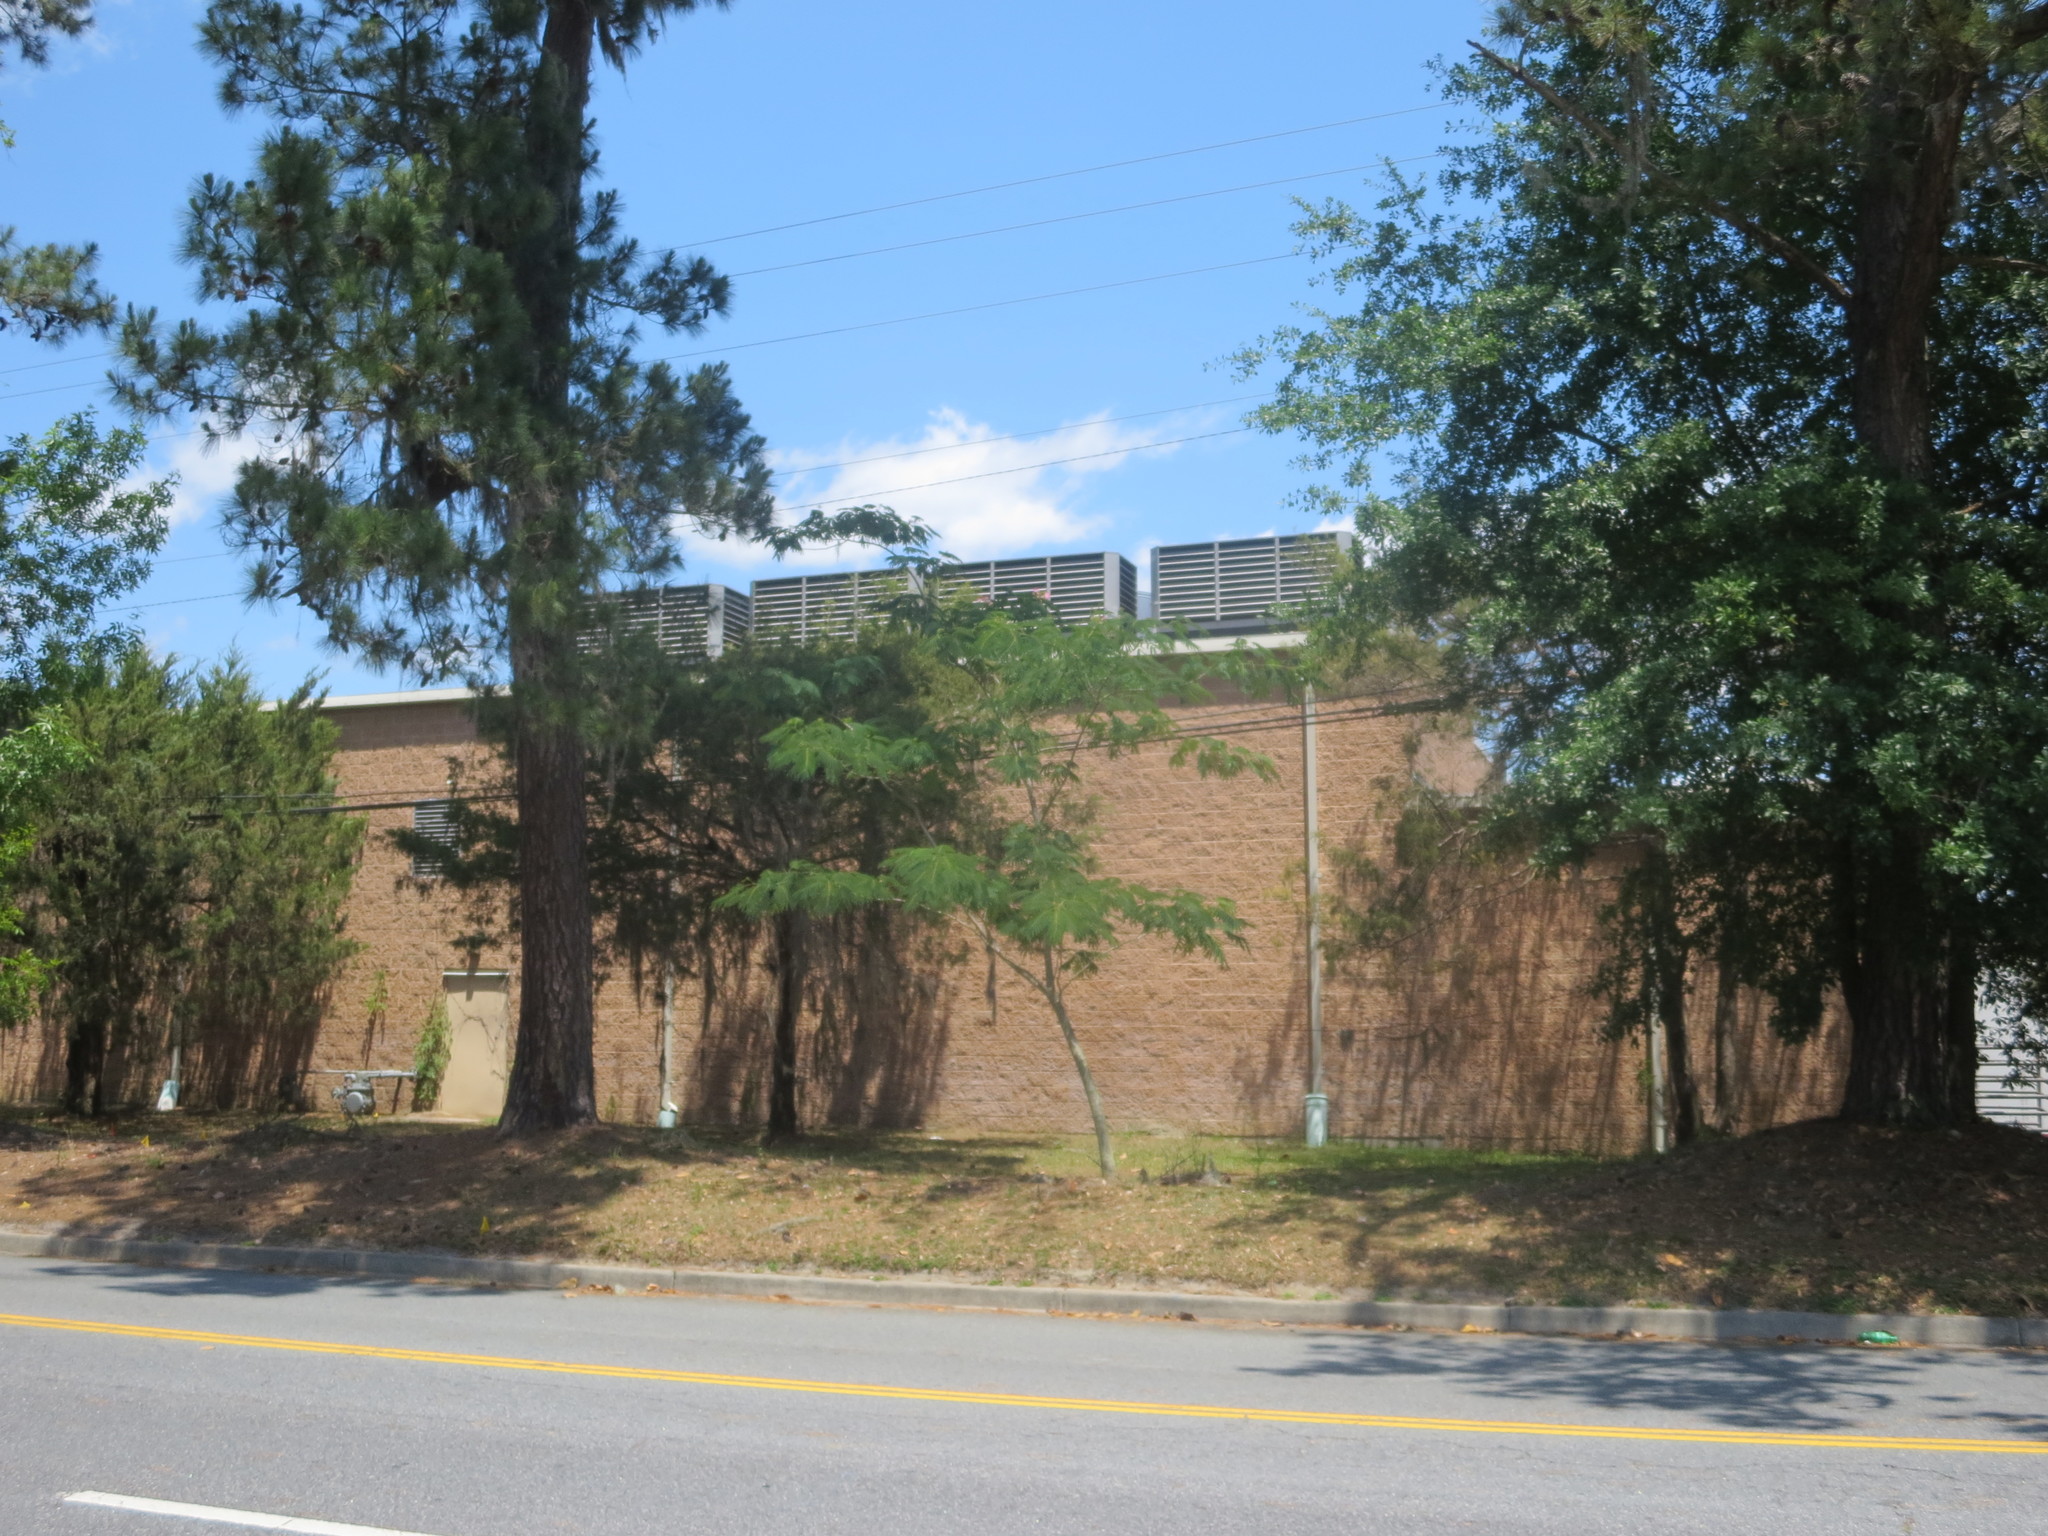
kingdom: Plantae
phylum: Tracheophyta
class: Magnoliopsida
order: Fabales
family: Fabaceae
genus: Albizia
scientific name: Albizia julibrissin
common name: Silktree
